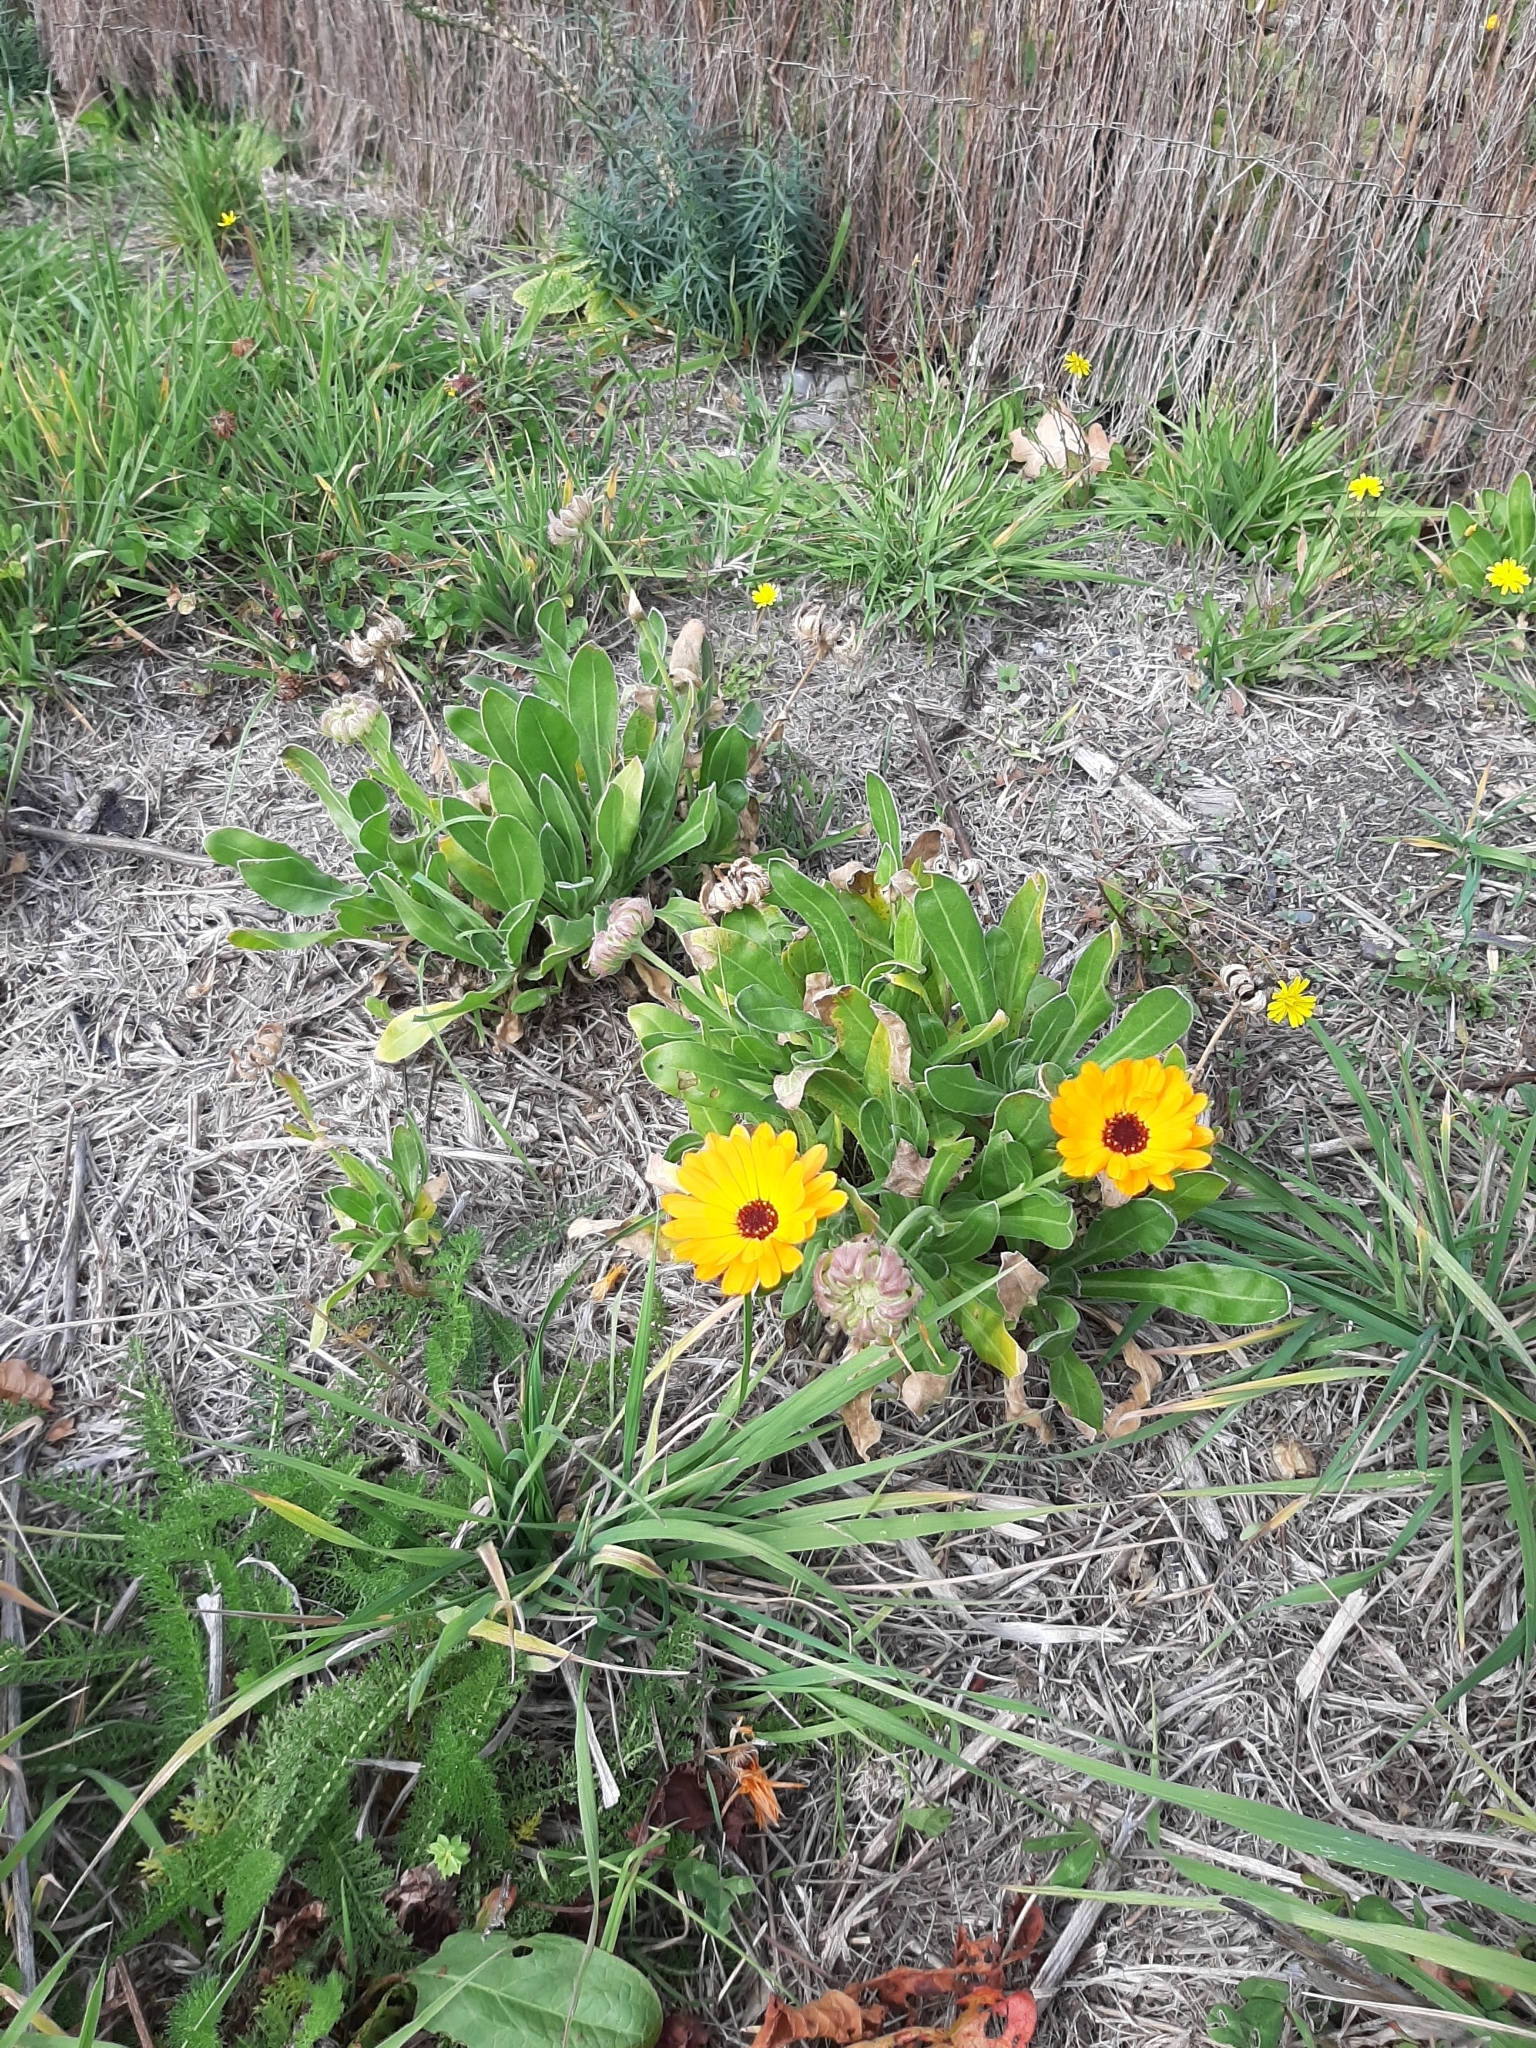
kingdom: Plantae
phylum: Tracheophyta
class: Magnoliopsida
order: Asterales
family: Asteraceae
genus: Calendula
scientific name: Calendula officinalis
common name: Pot marigold
